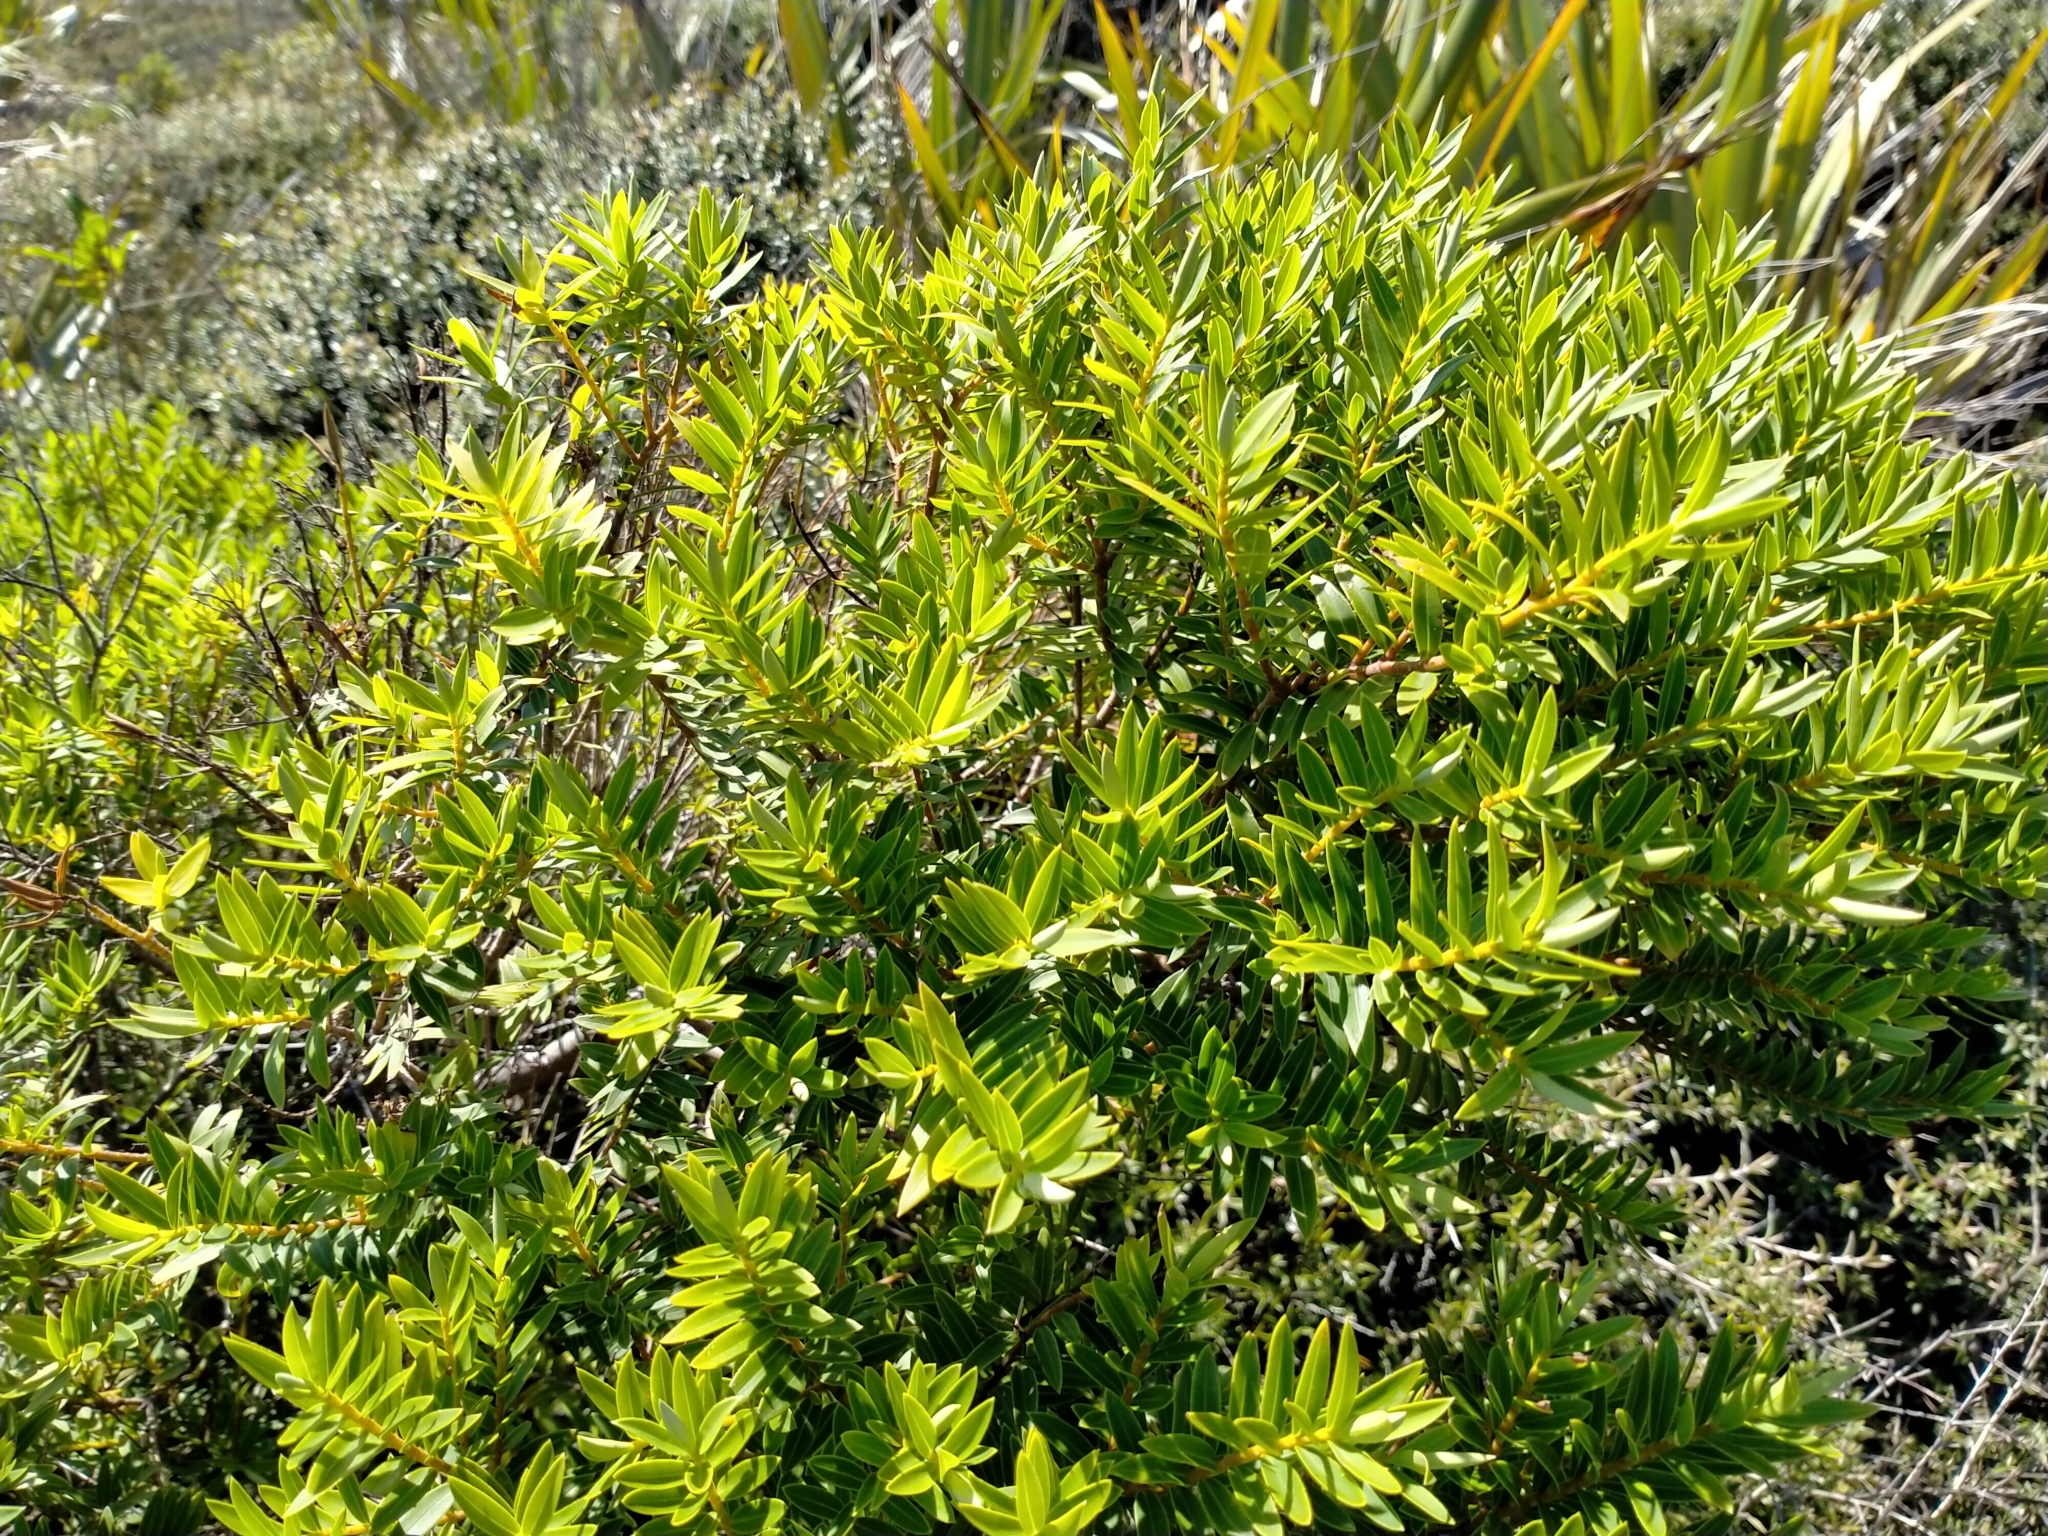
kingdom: Plantae
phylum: Tracheophyta
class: Magnoliopsida
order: Lamiales
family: Plantaginaceae
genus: Veronica
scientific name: Veronica diosmifolia
